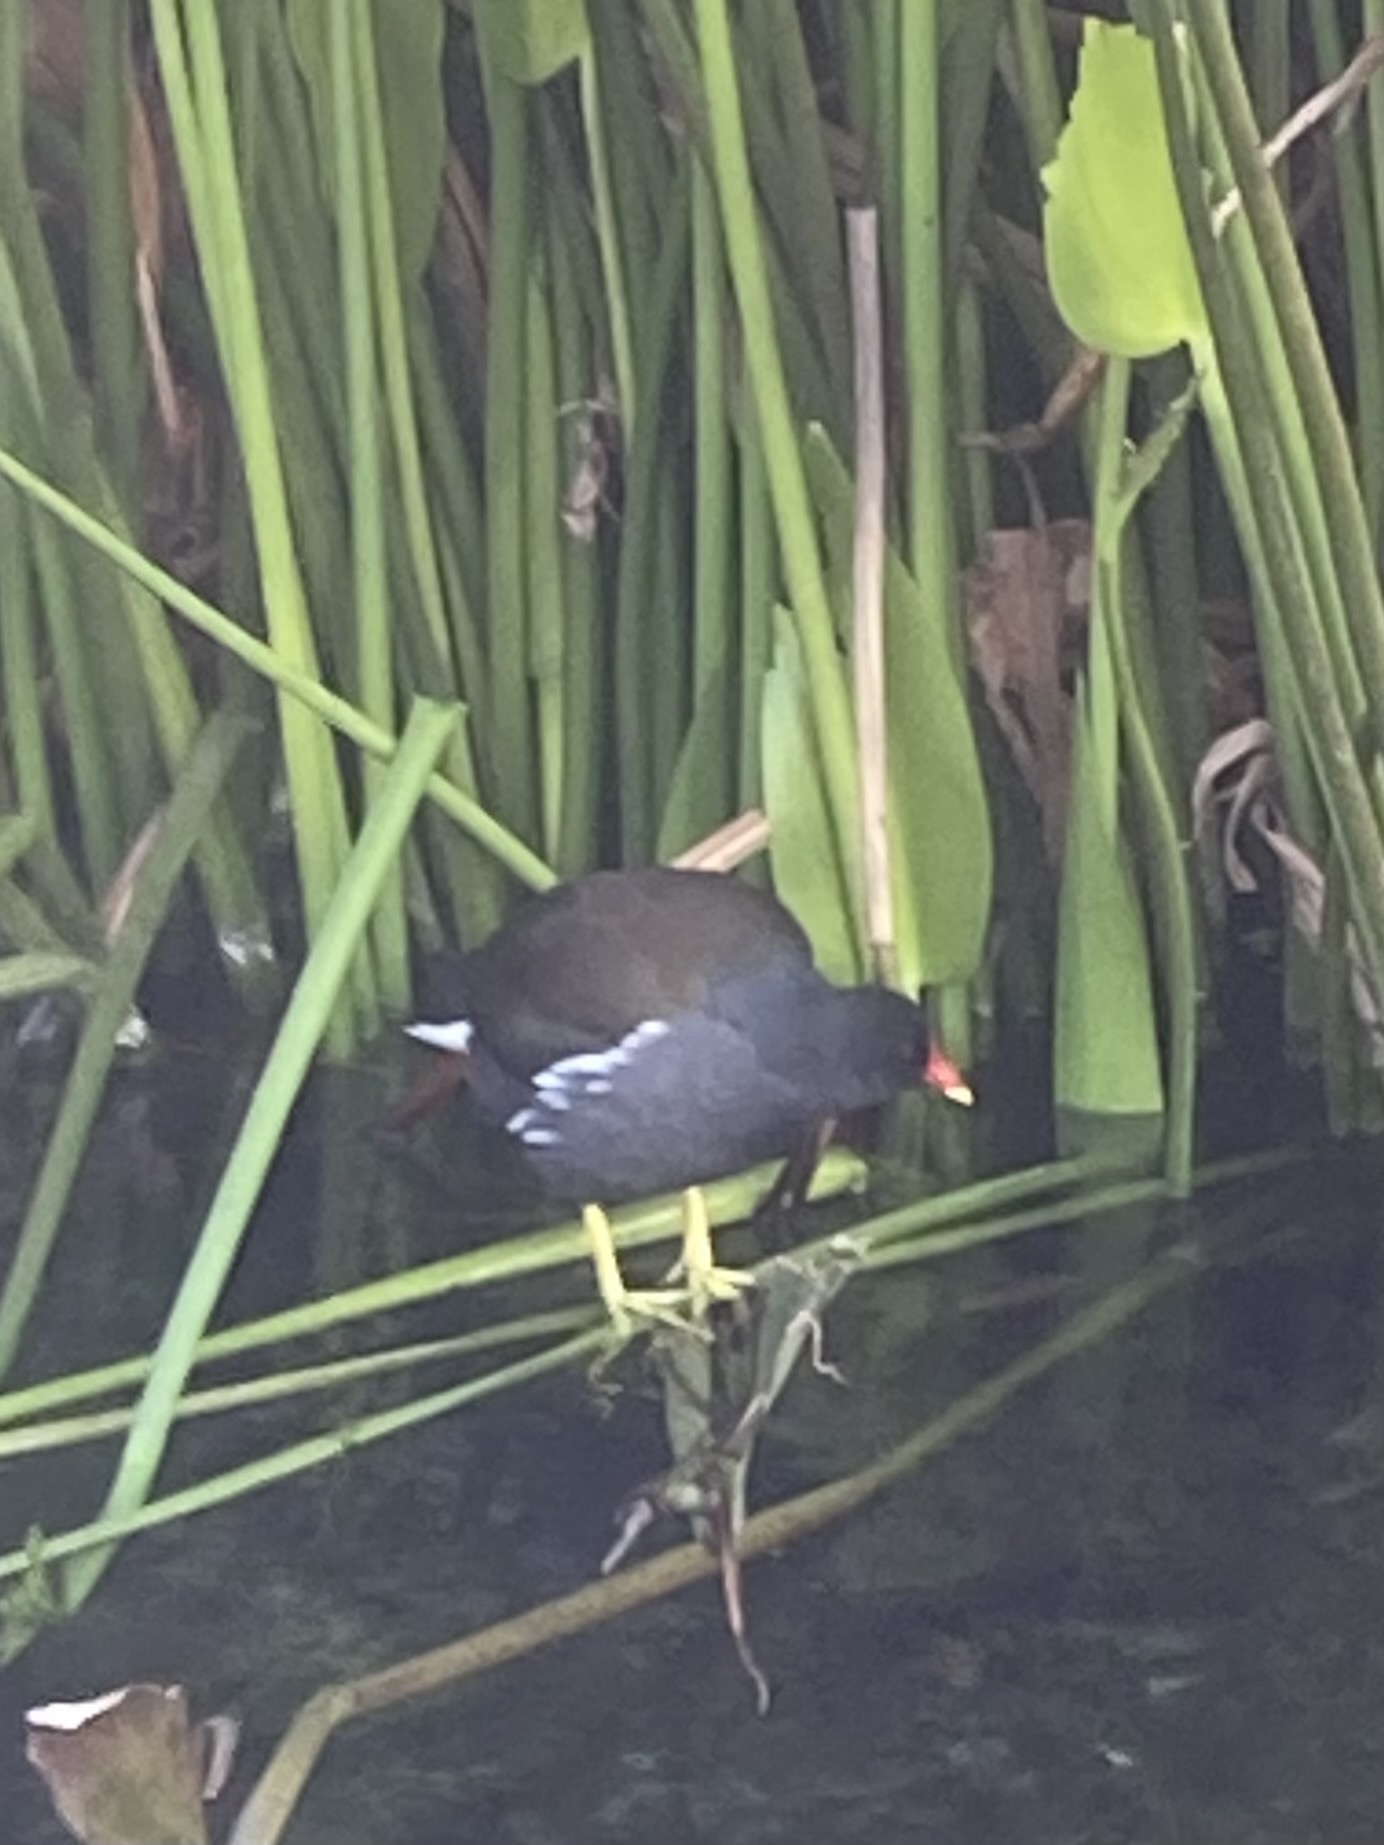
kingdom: Animalia
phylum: Chordata
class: Aves
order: Gruiformes
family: Rallidae
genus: Gallinula
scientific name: Gallinula chloropus
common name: Common moorhen
